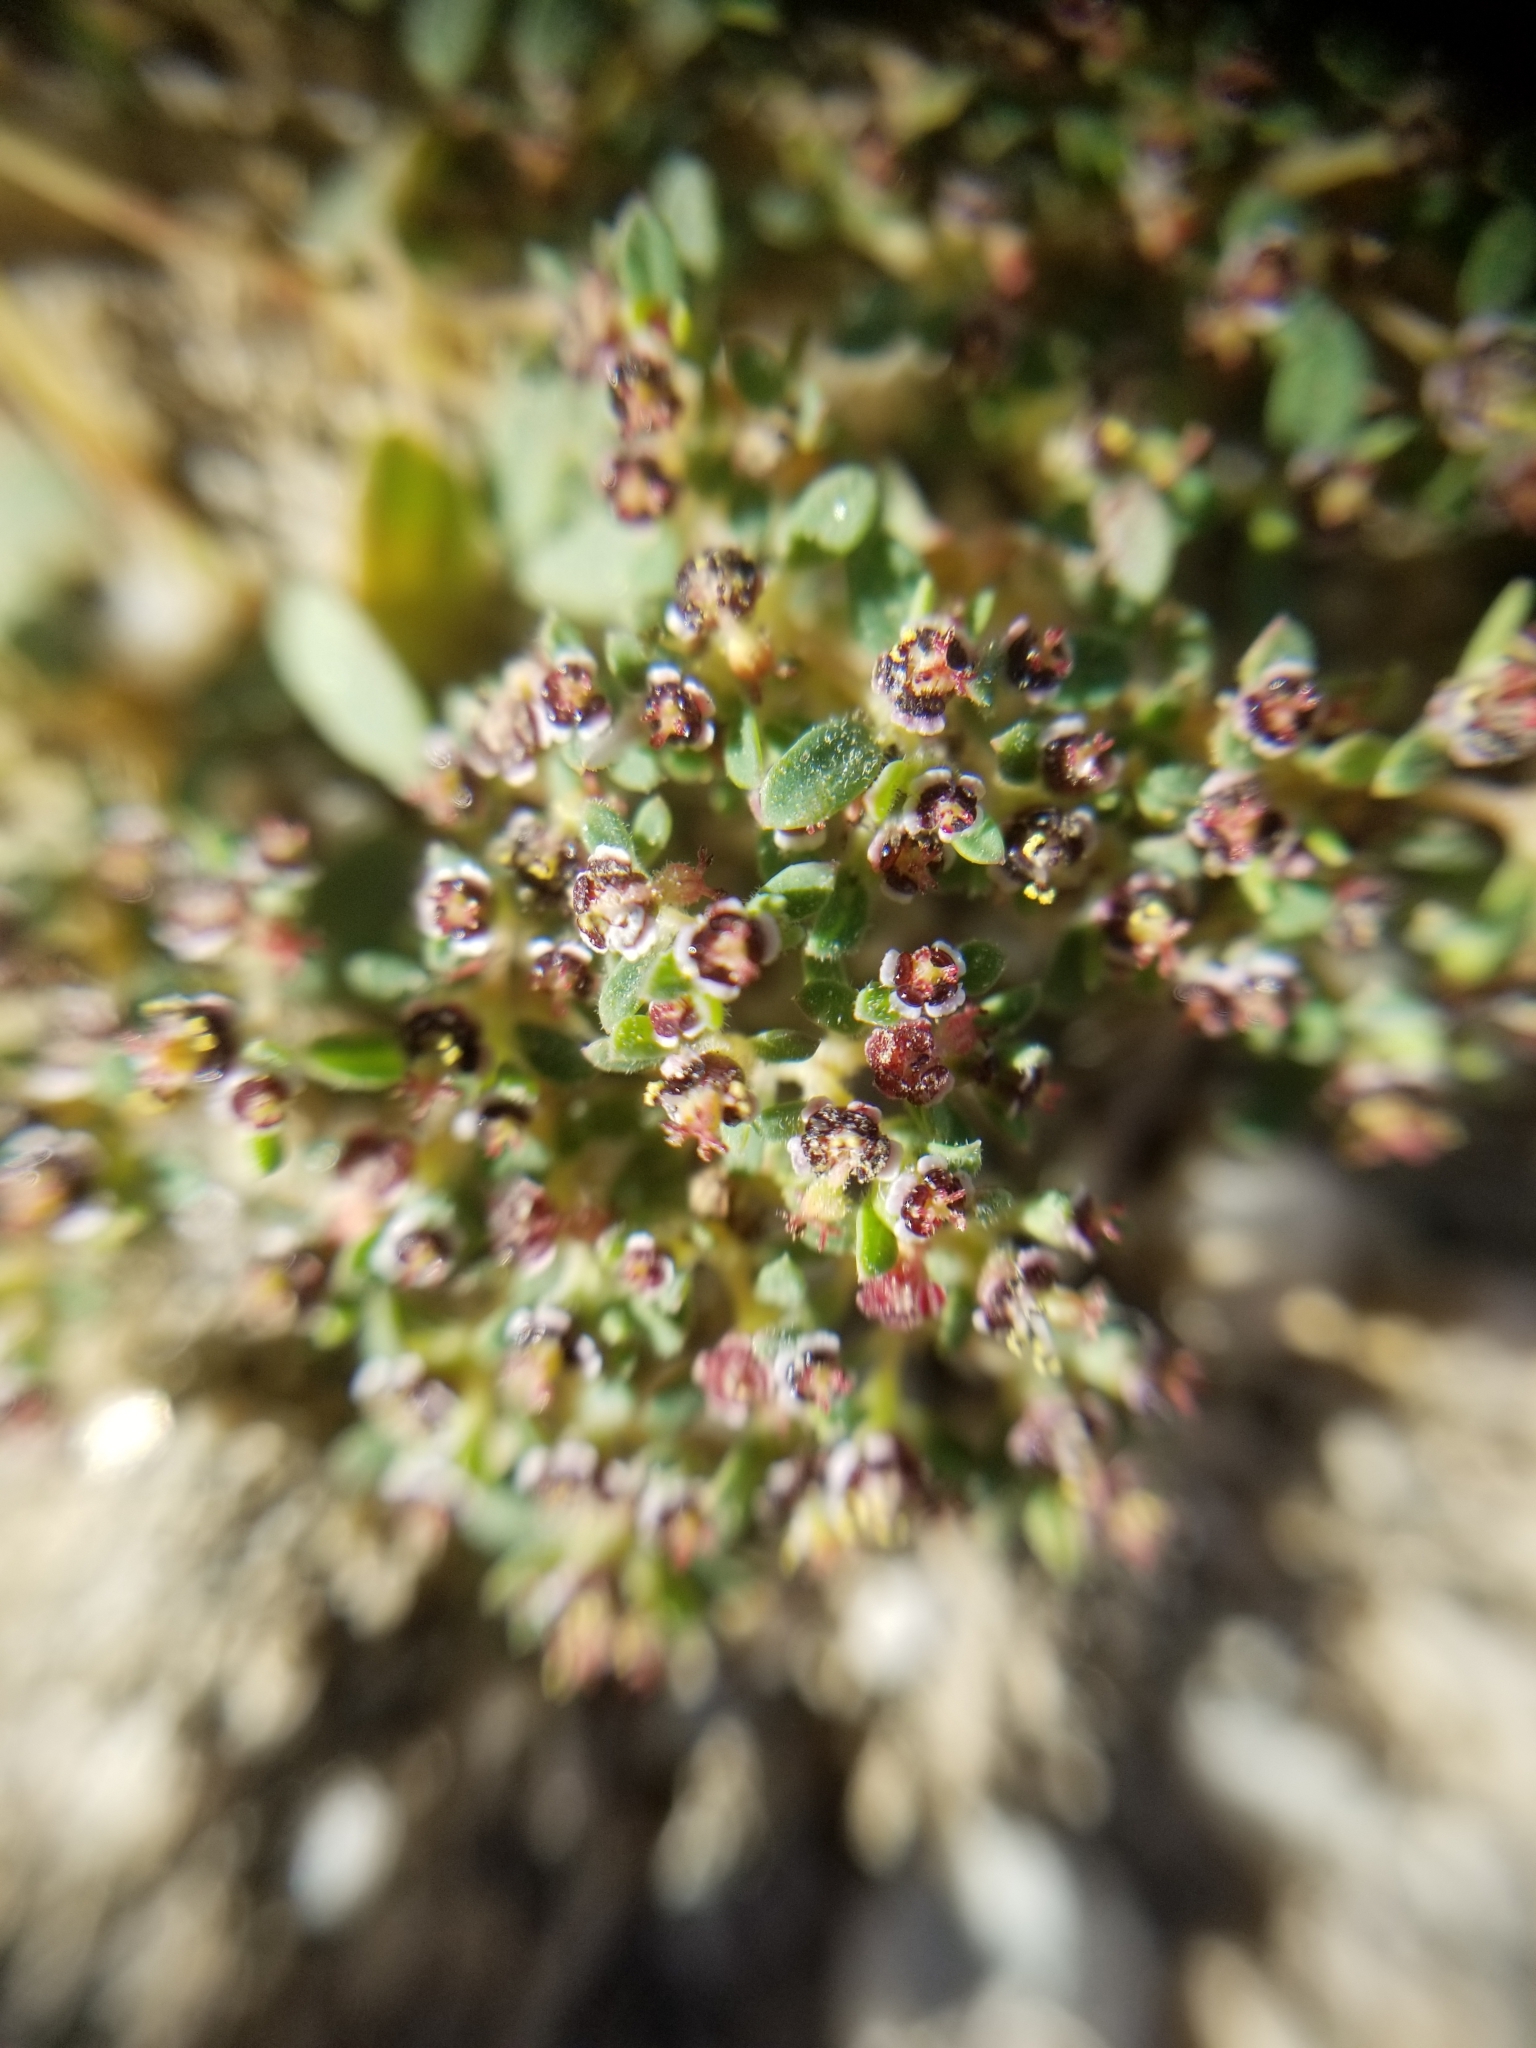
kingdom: Plantae
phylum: Tracheophyta
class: Magnoliopsida
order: Malpighiales
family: Euphorbiaceae
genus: Euphorbia
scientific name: Euphorbia polycarpa
